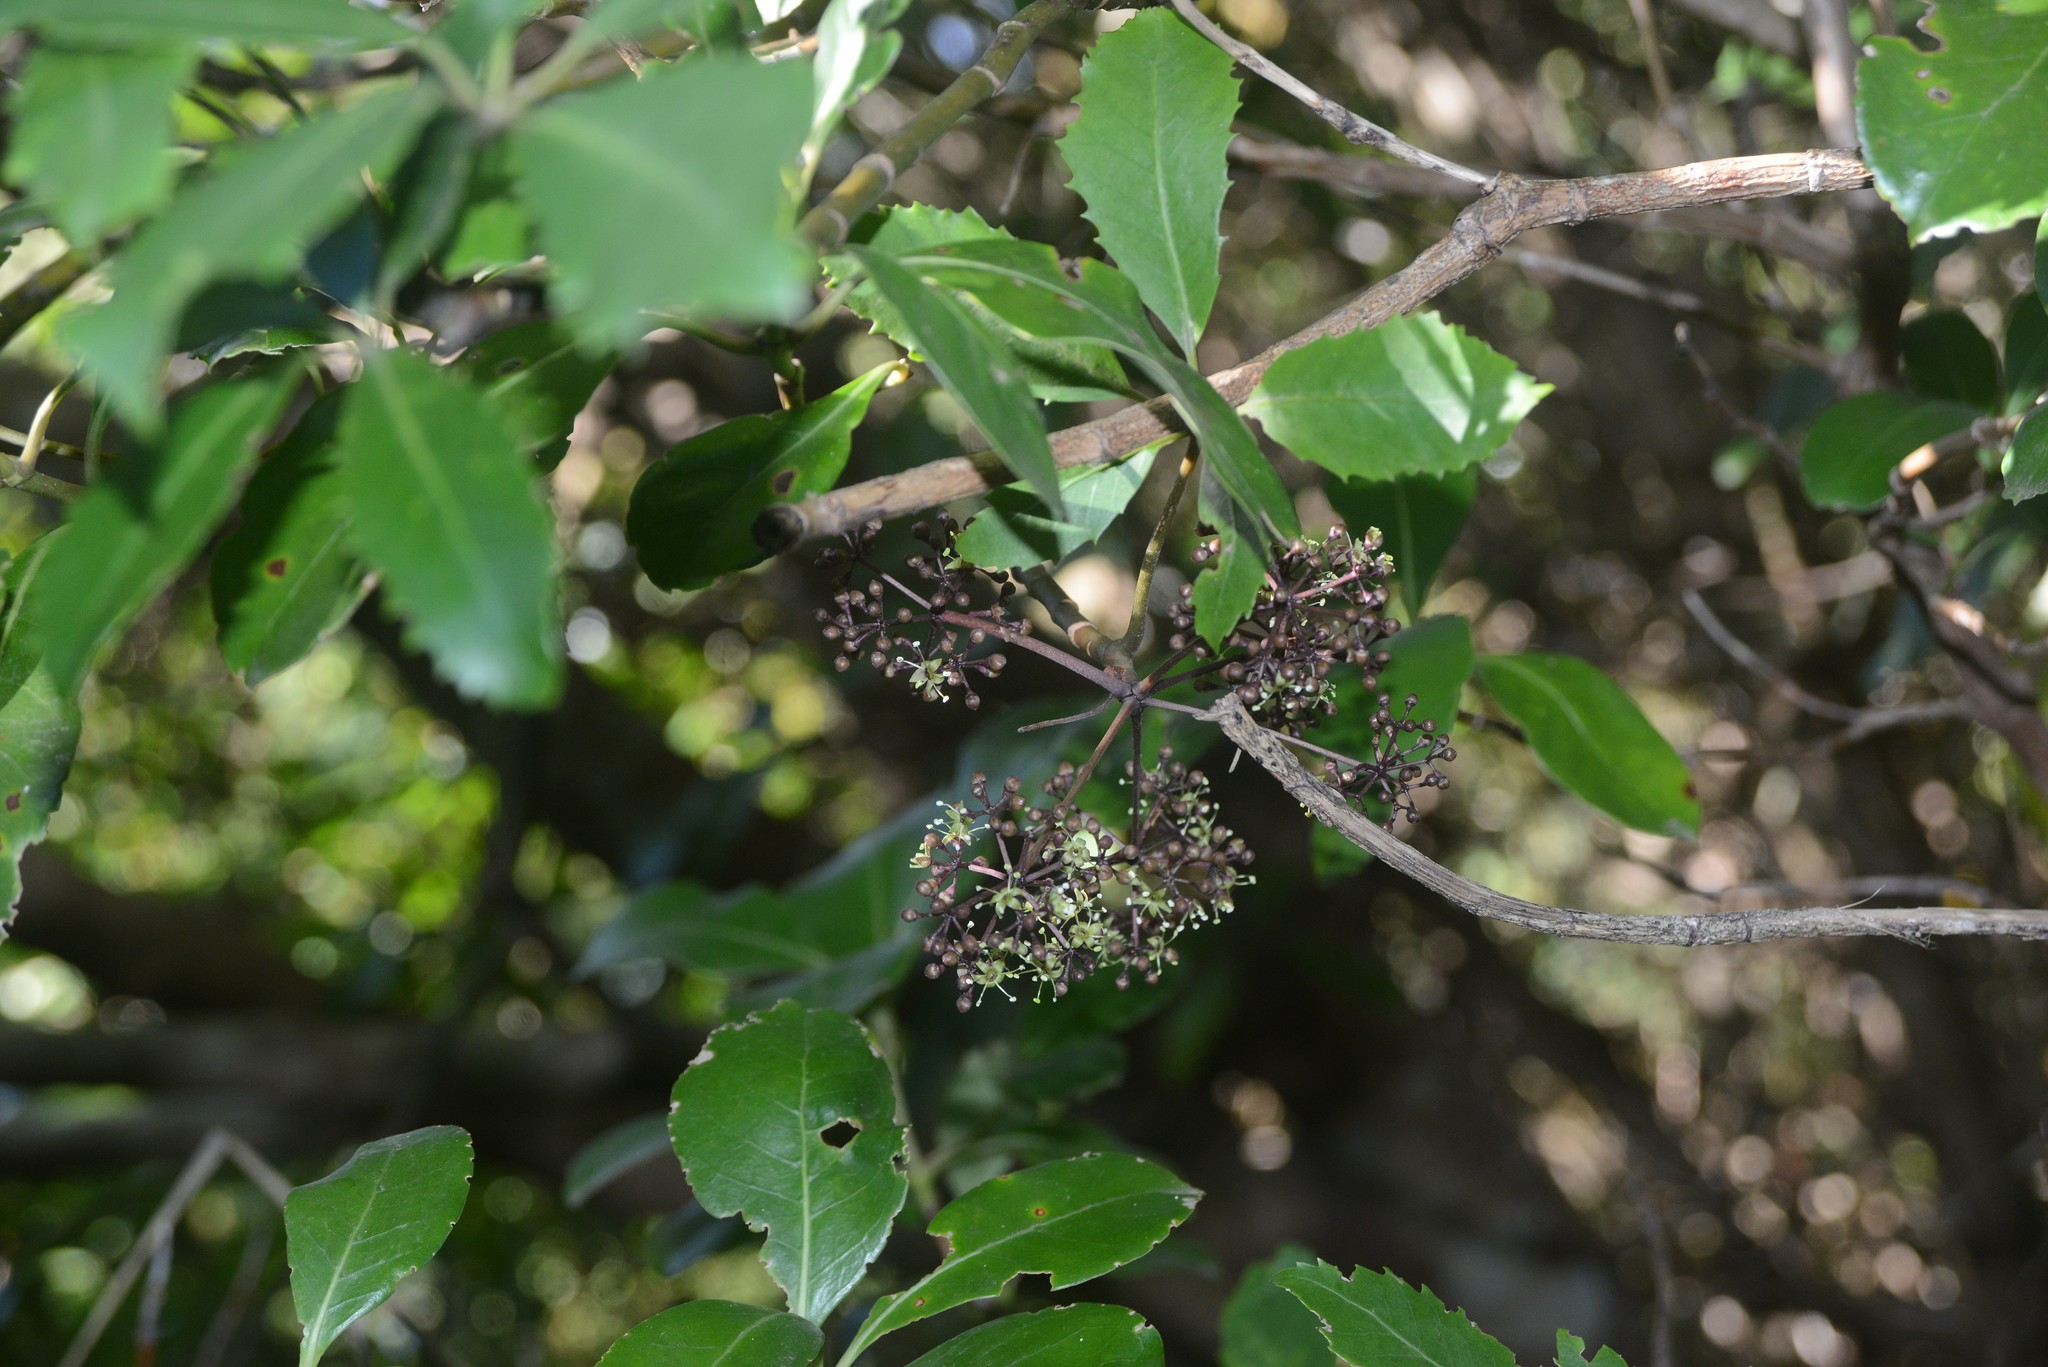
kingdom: Plantae
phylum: Tracheophyta
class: Magnoliopsida
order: Apiales
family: Araliaceae
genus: Neopanax
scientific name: Neopanax arboreus
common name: Five-fingers
